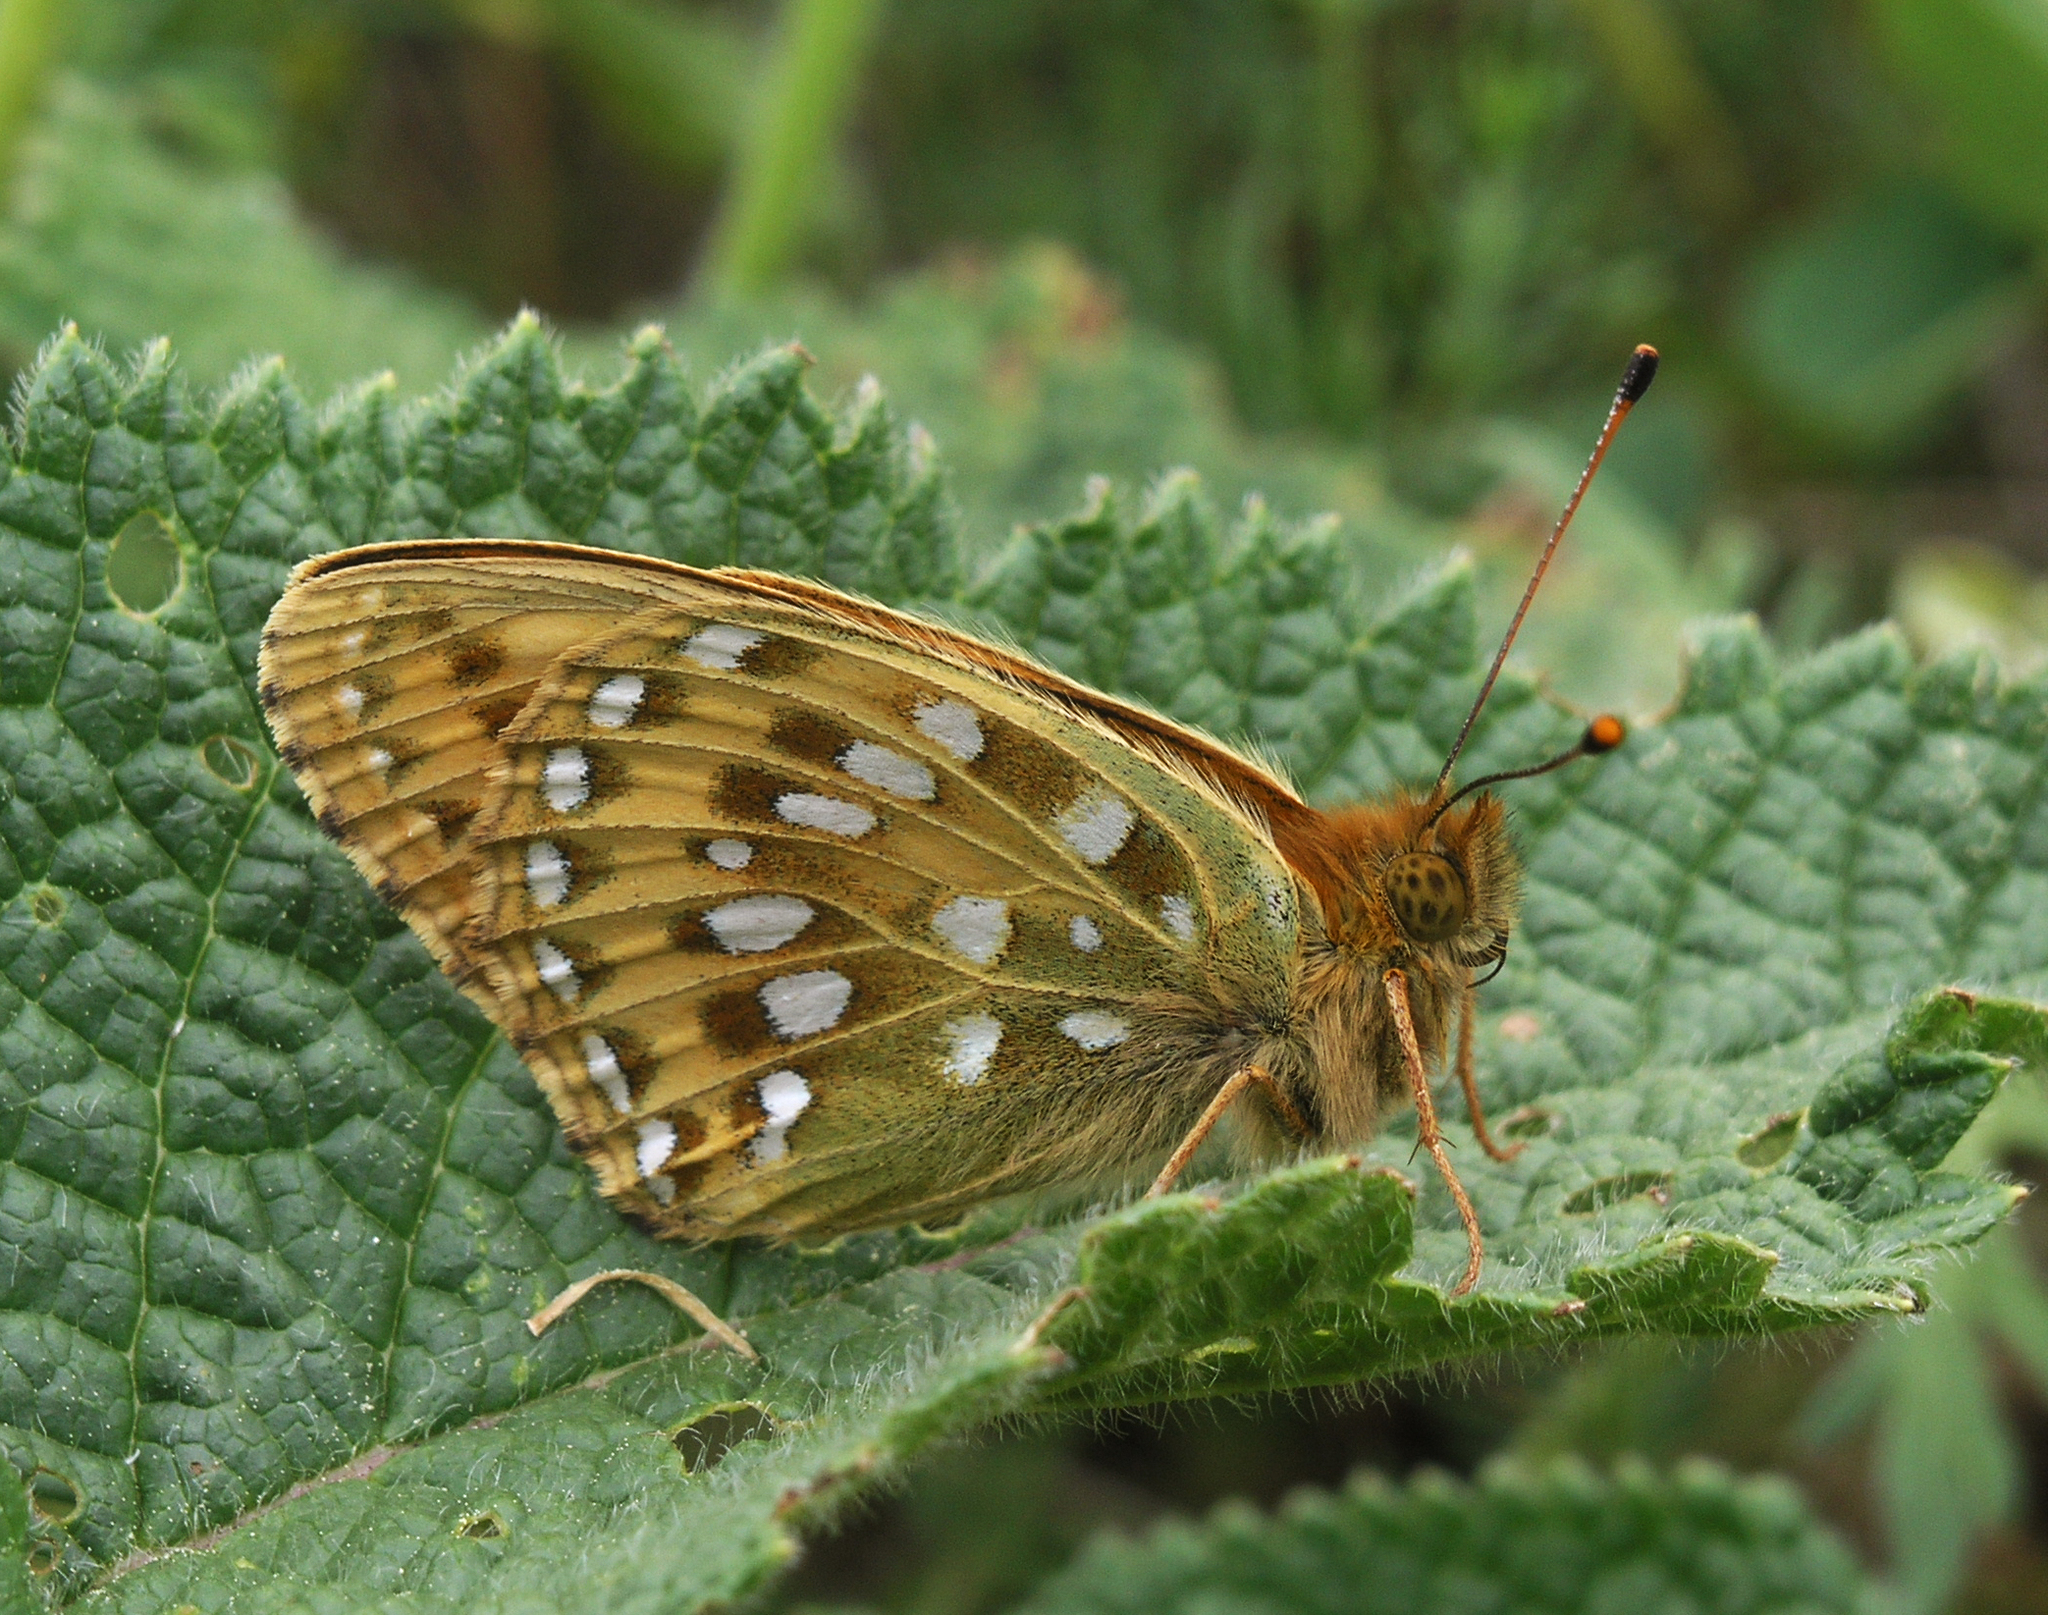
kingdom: Animalia
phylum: Arthropoda
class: Insecta
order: Lepidoptera
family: Nymphalidae
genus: Speyeria
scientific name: Speyeria aglaja
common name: Dark green fritillary
